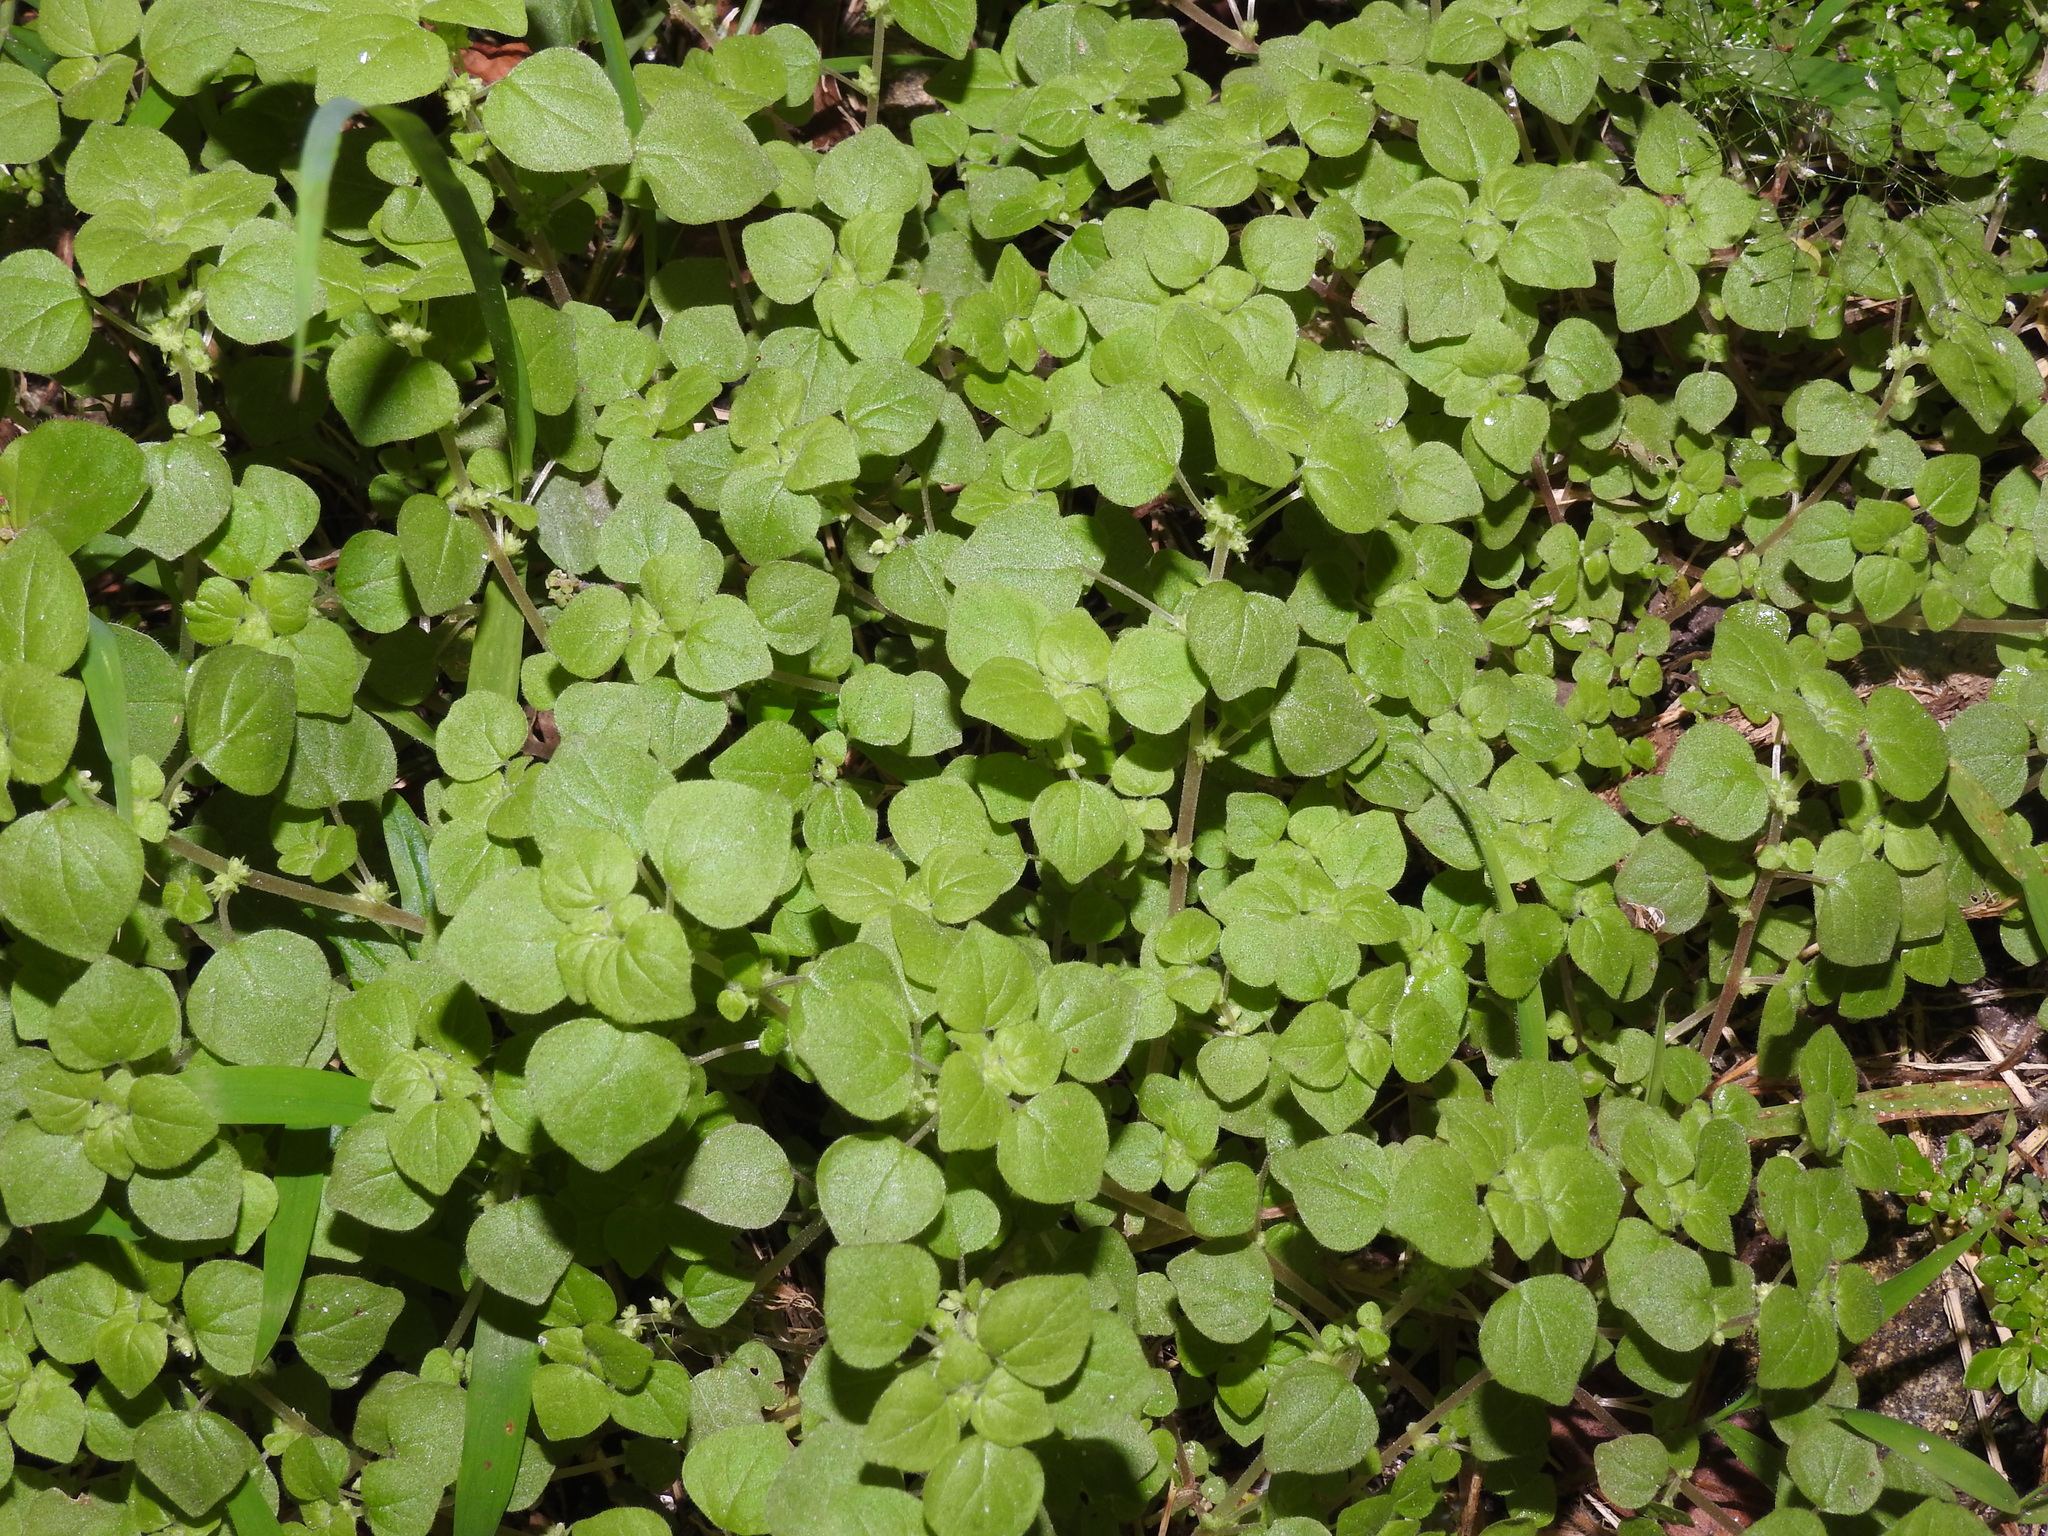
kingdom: Plantae
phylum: Tracheophyta
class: Magnoliopsida
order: Rosales
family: Urticaceae
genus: Parietaria
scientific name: Parietaria floridana
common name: Florida pellitory
